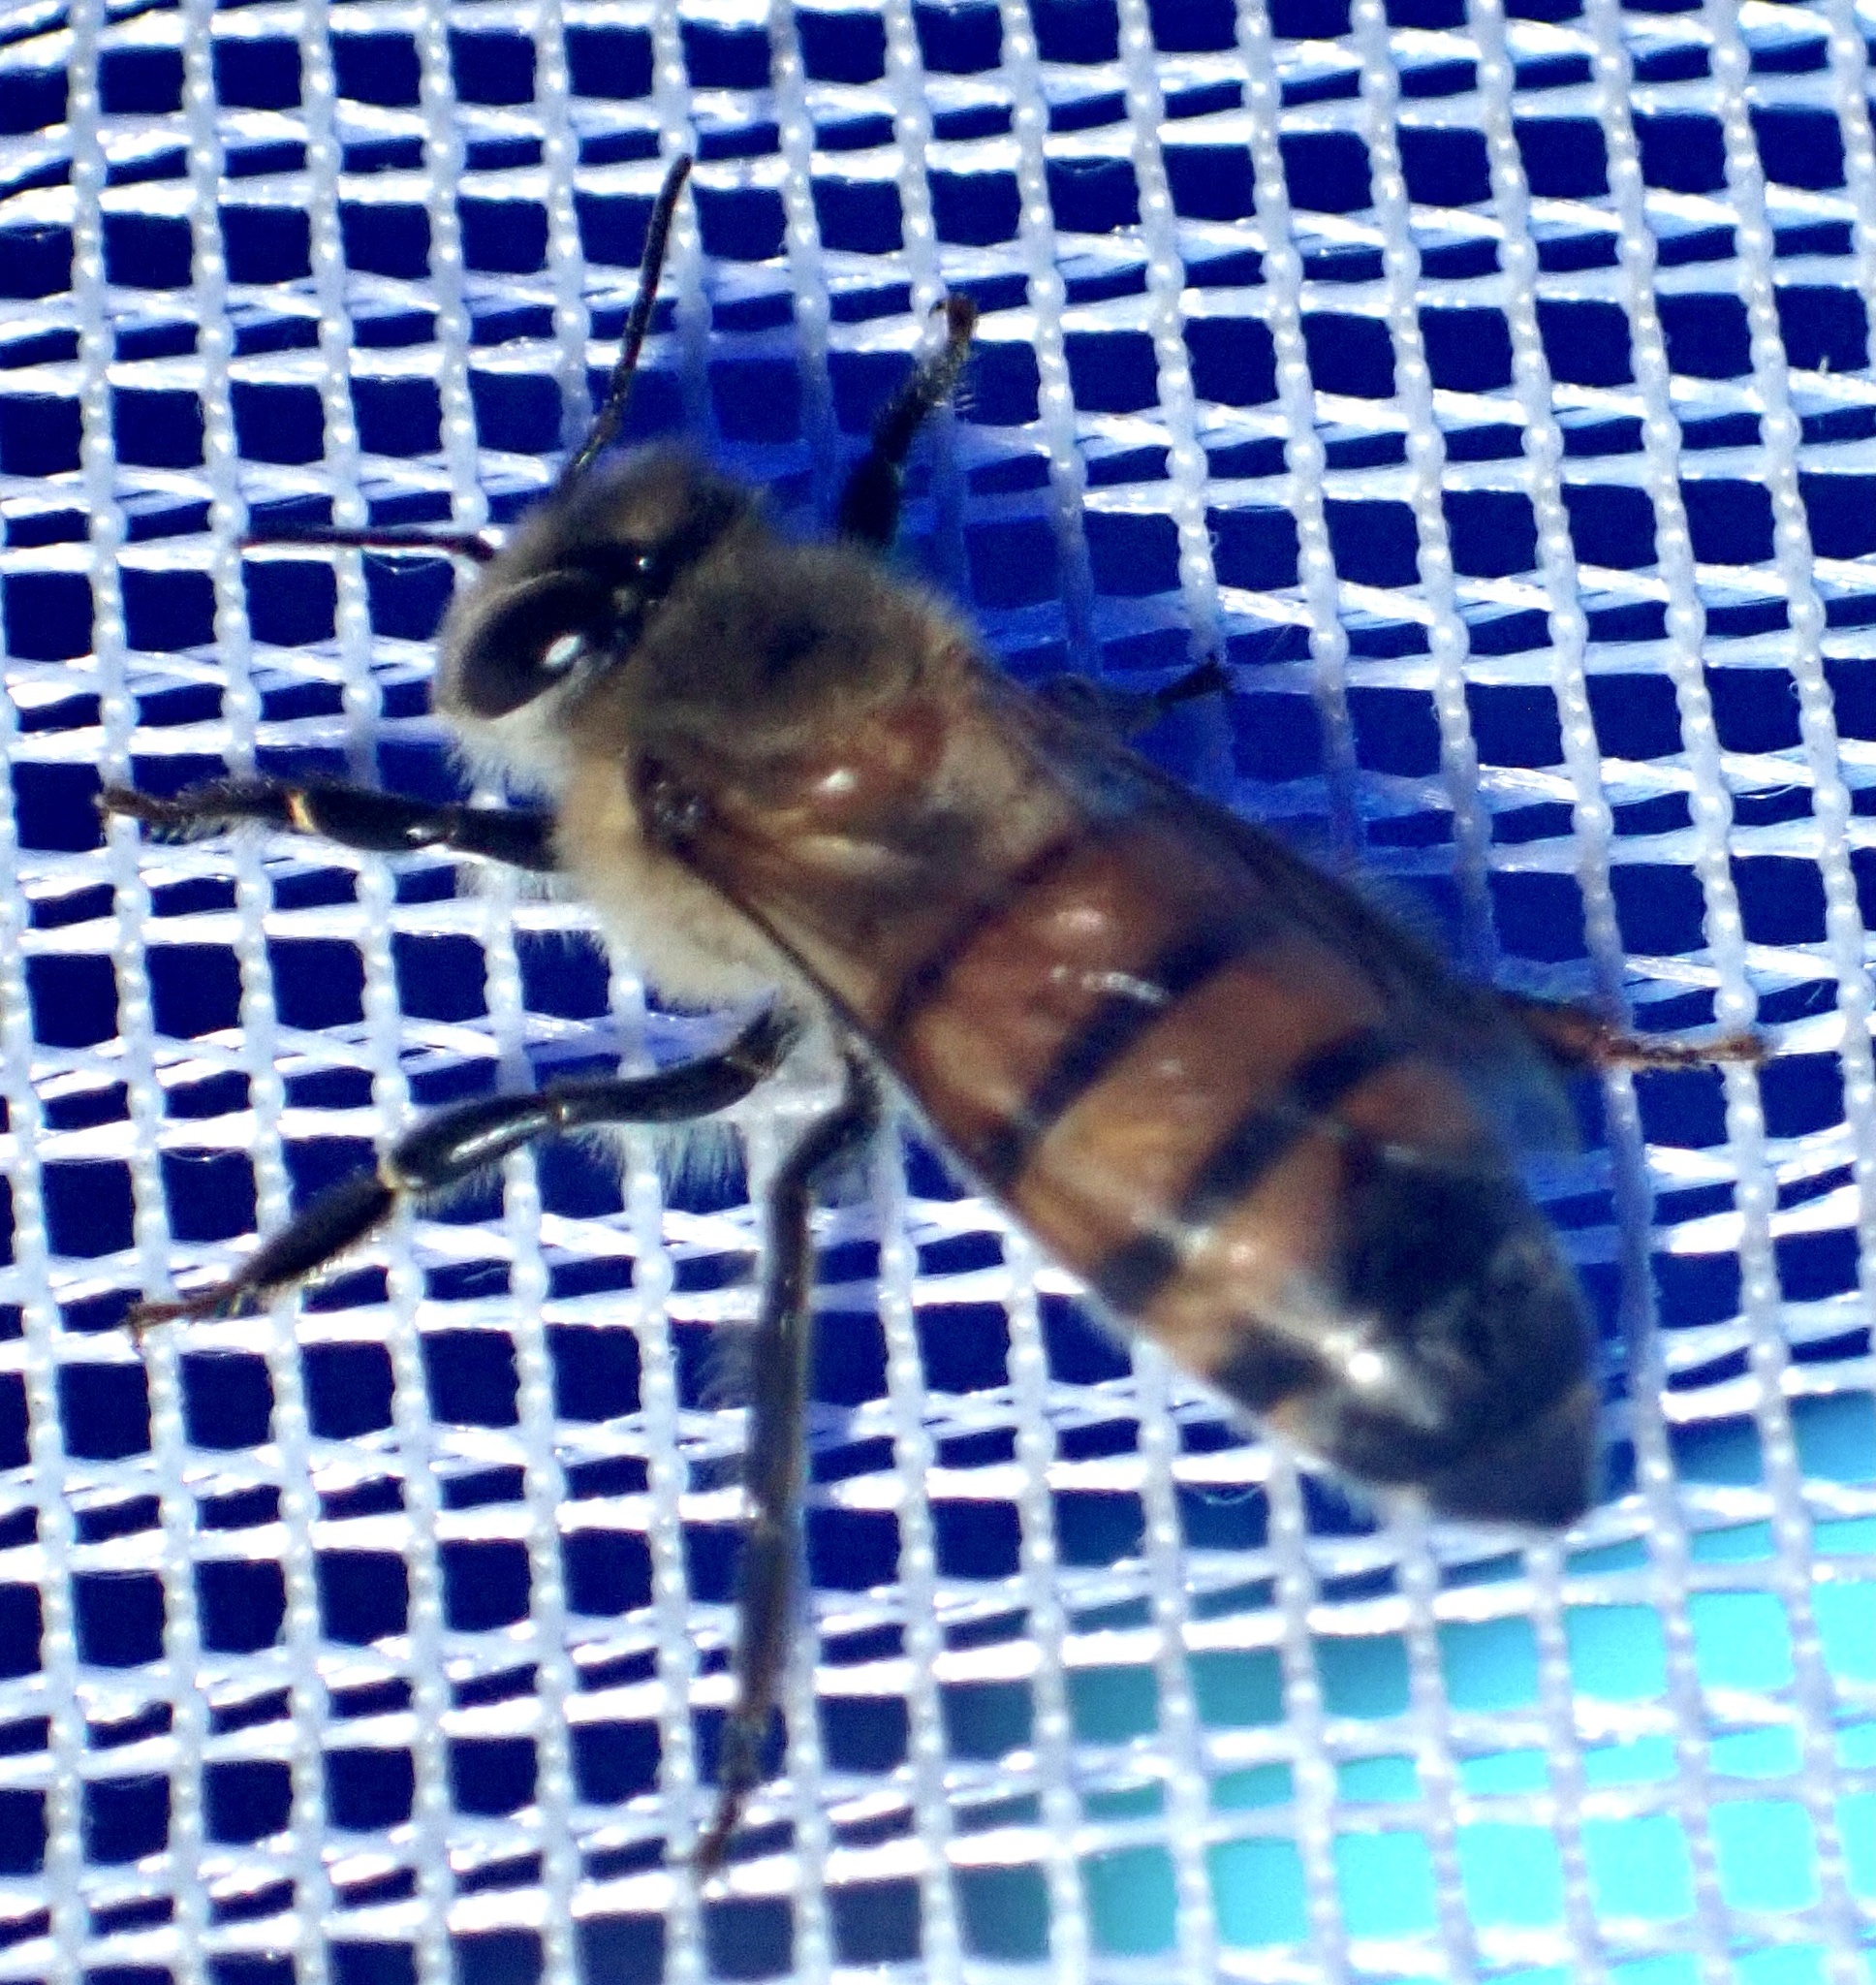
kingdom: Animalia
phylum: Arthropoda
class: Insecta
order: Hymenoptera
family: Apidae
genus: Apis
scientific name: Apis mellifera
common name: Honey bee
